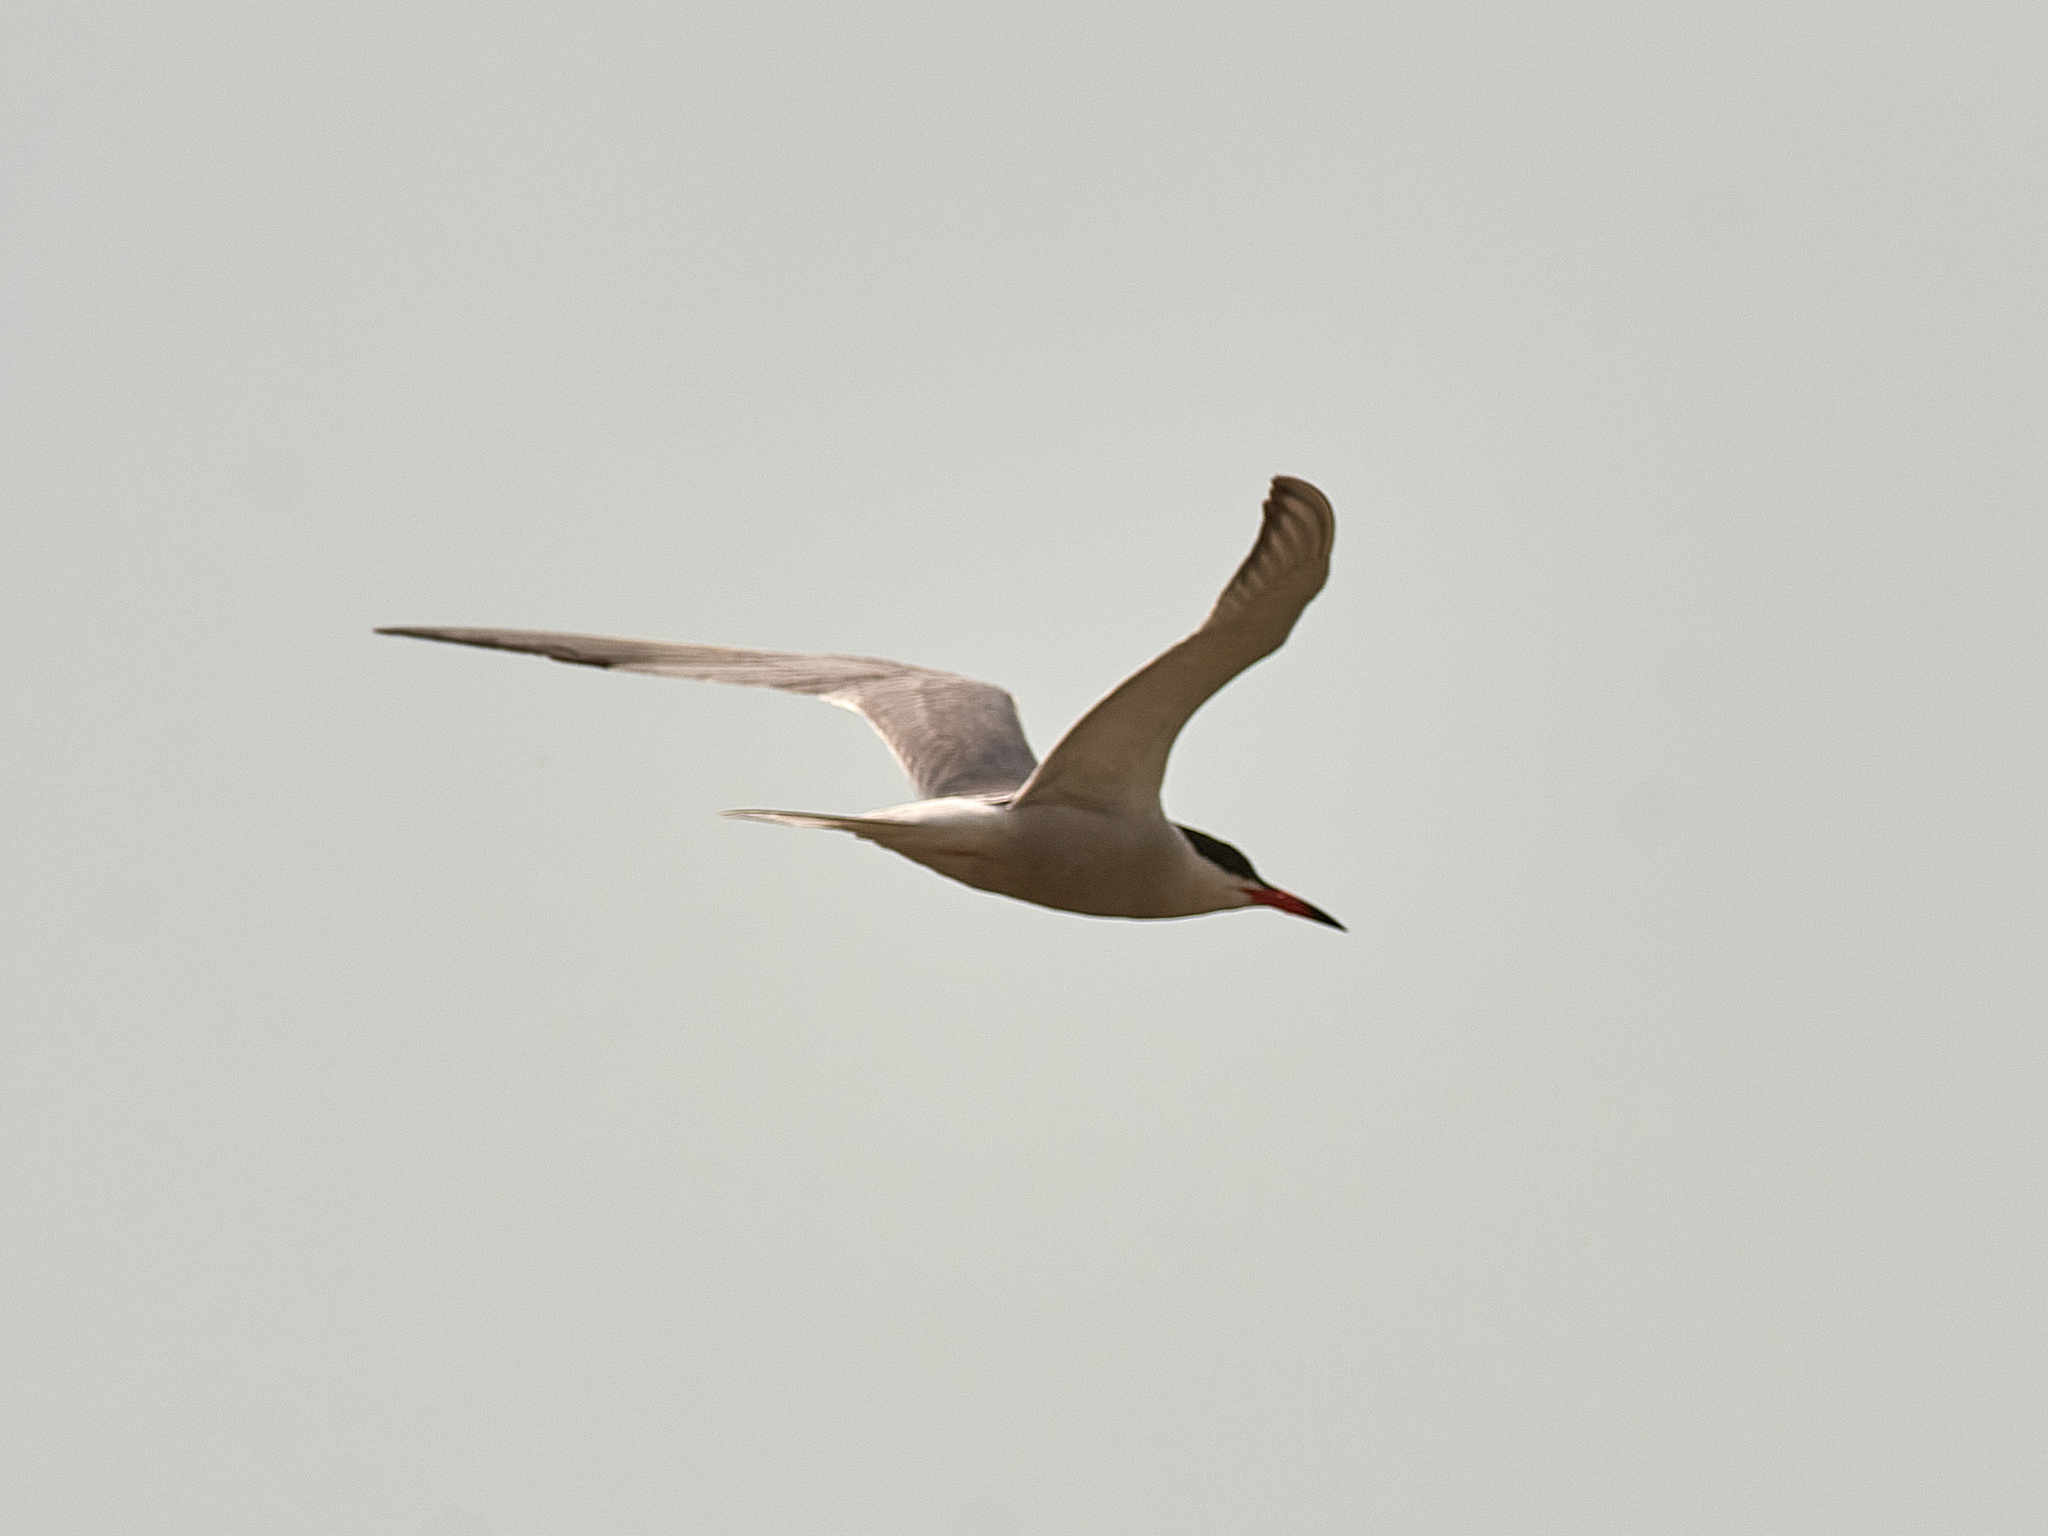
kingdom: Animalia
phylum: Chordata
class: Aves
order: Charadriiformes
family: Laridae
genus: Sterna
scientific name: Sterna hirundo
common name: Common tern
